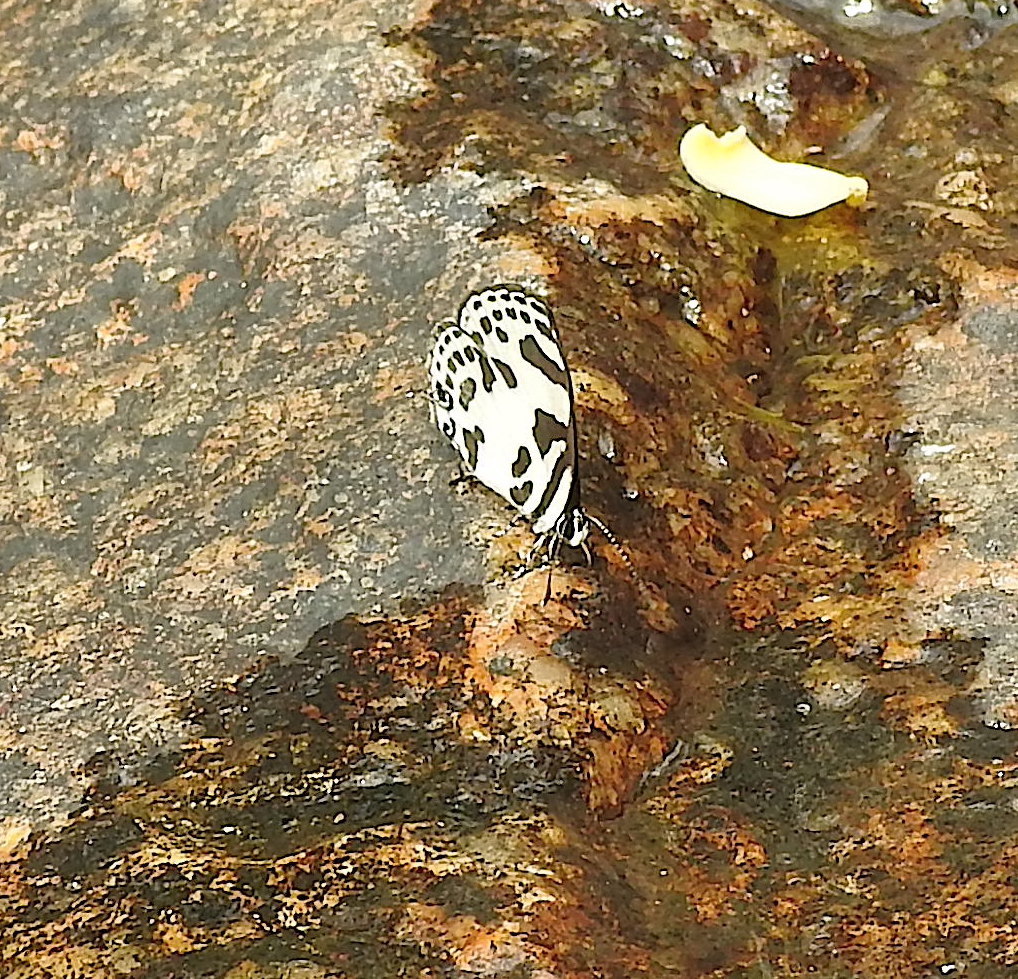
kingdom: Animalia
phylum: Arthropoda
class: Insecta
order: Lepidoptera
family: Lycaenidae
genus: Discolampa
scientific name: Discolampa ethion
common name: Banded blue pierrot
